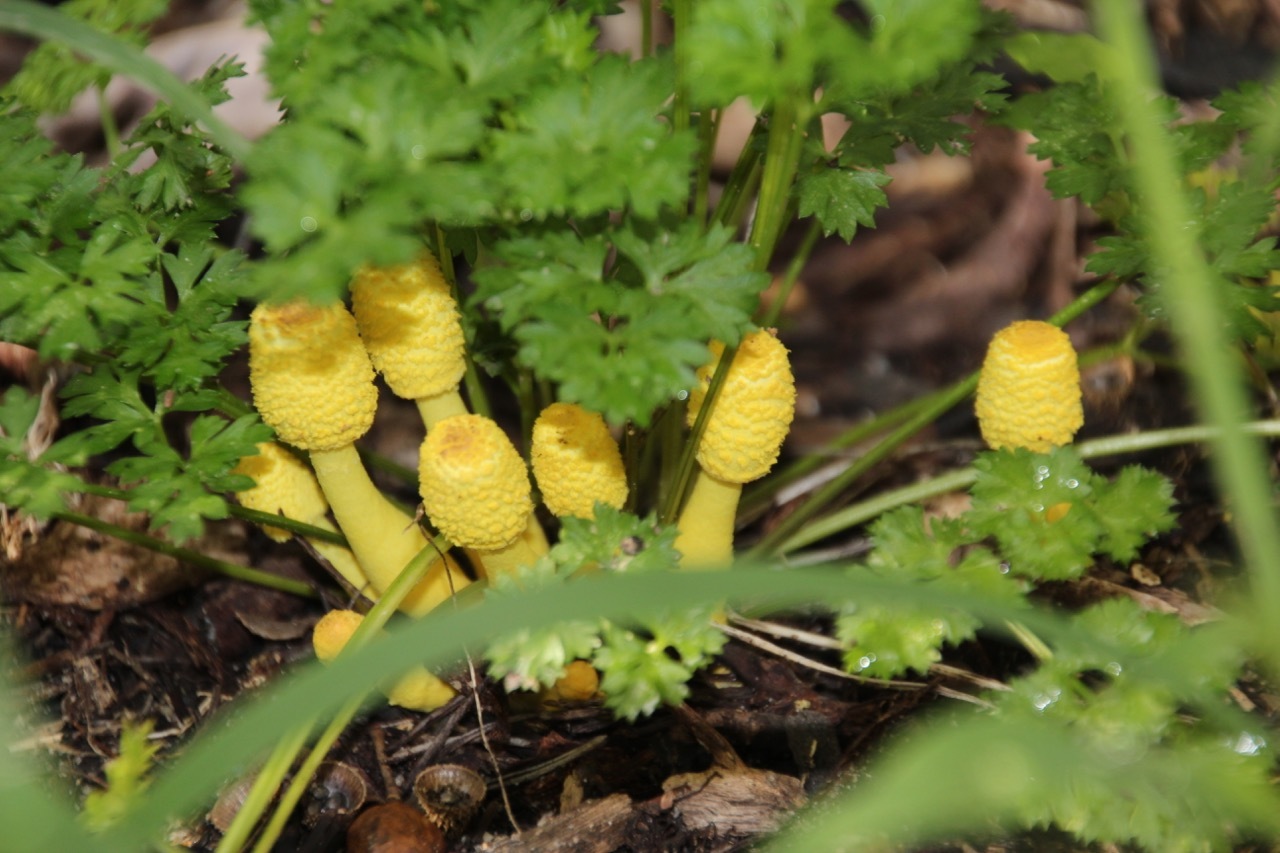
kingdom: Fungi
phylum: Basidiomycota
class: Agaricomycetes
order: Agaricales
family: Agaricaceae
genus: Leucocoprinus
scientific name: Leucocoprinus birnbaumii
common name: Plantpot dapperling
